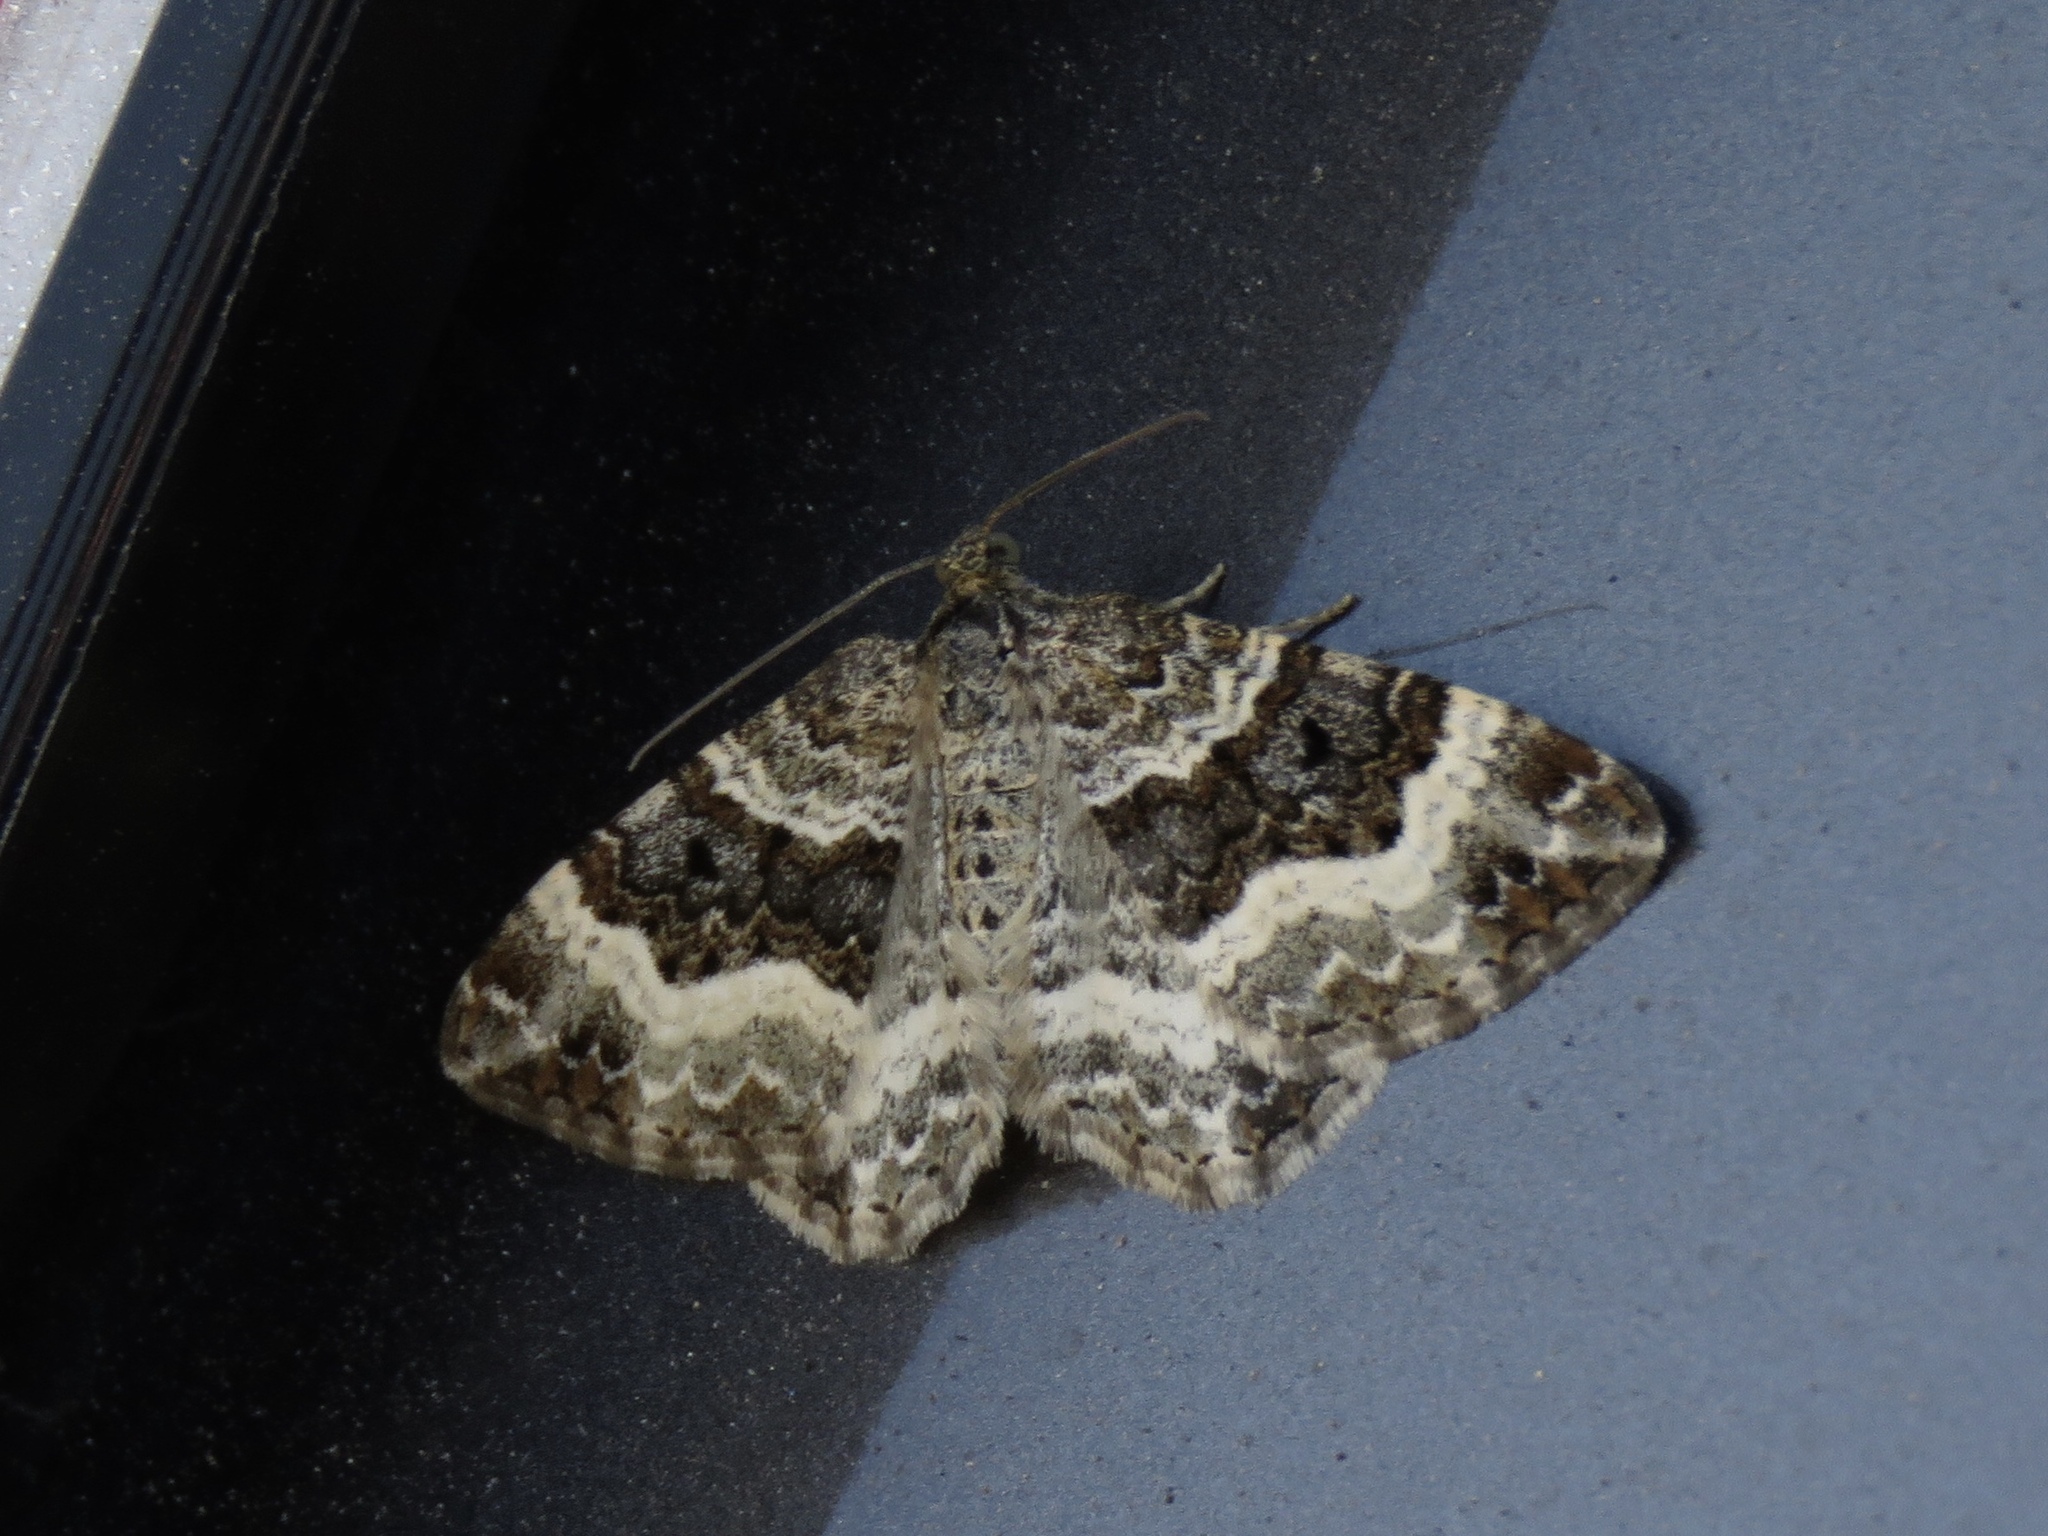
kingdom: Animalia
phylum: Arthropoda
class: Insecta
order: Lepidoptera
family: Geometridae
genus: Epirrhoe
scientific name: Epirrhoe alternata
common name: Common carpet
